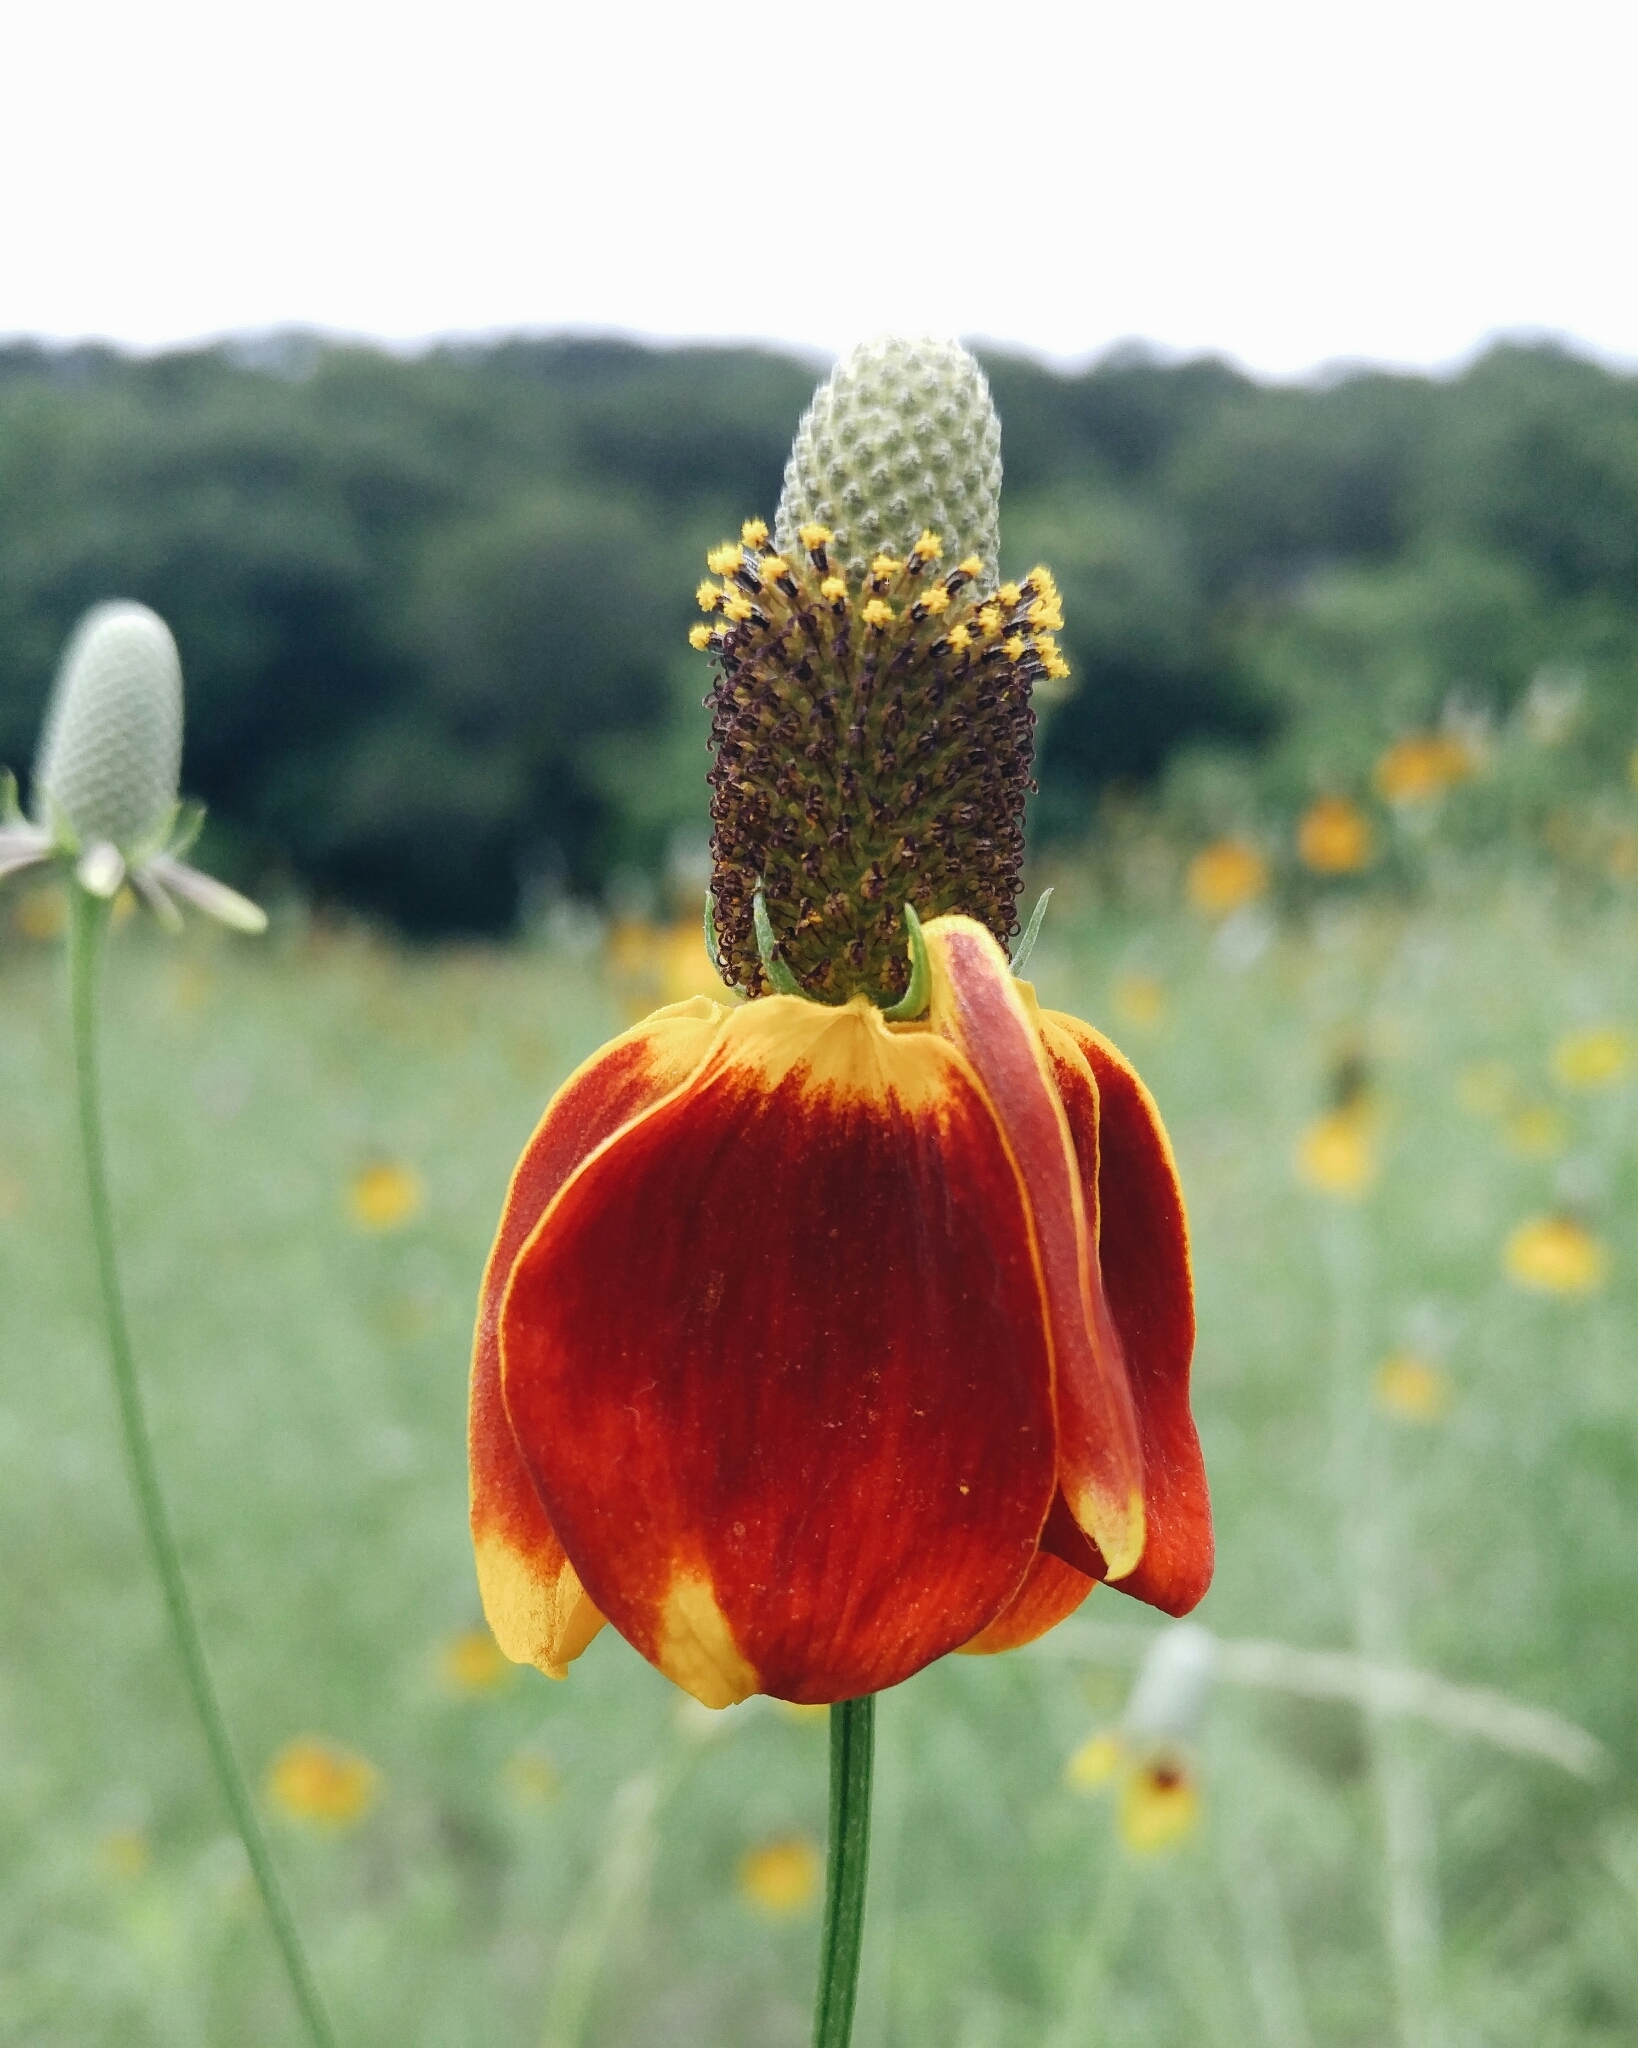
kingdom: Plantae
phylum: Tracheophyta
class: Magnoliopsida
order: Asterales
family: Asteraceae
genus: Ratibida
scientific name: Ratibida columnifera
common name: Prairie coneflower
